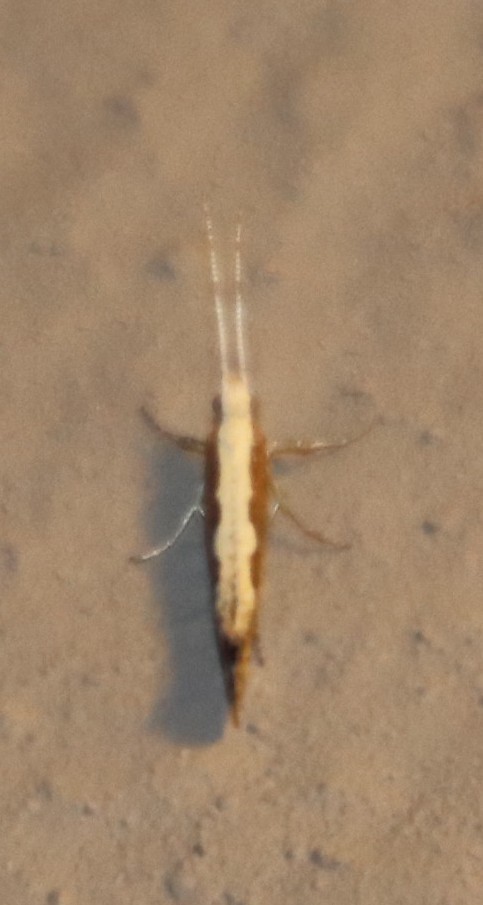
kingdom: Animalia
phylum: Arthropoda
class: Insecta
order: Lepidoptera
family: Plutellidae
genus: Plutella
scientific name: Plutella xylostella
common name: Diamond-back moth
